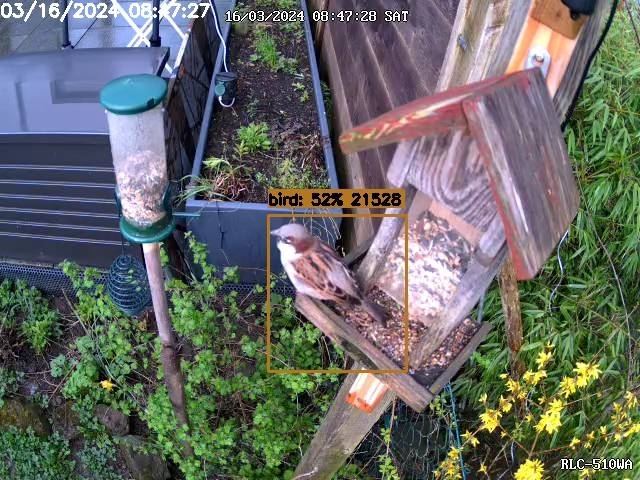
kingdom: Animalia
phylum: Chordata
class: Aves
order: Passeriformes
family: Passeridae
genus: Passer
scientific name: Passer domesticus
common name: House sparrow
